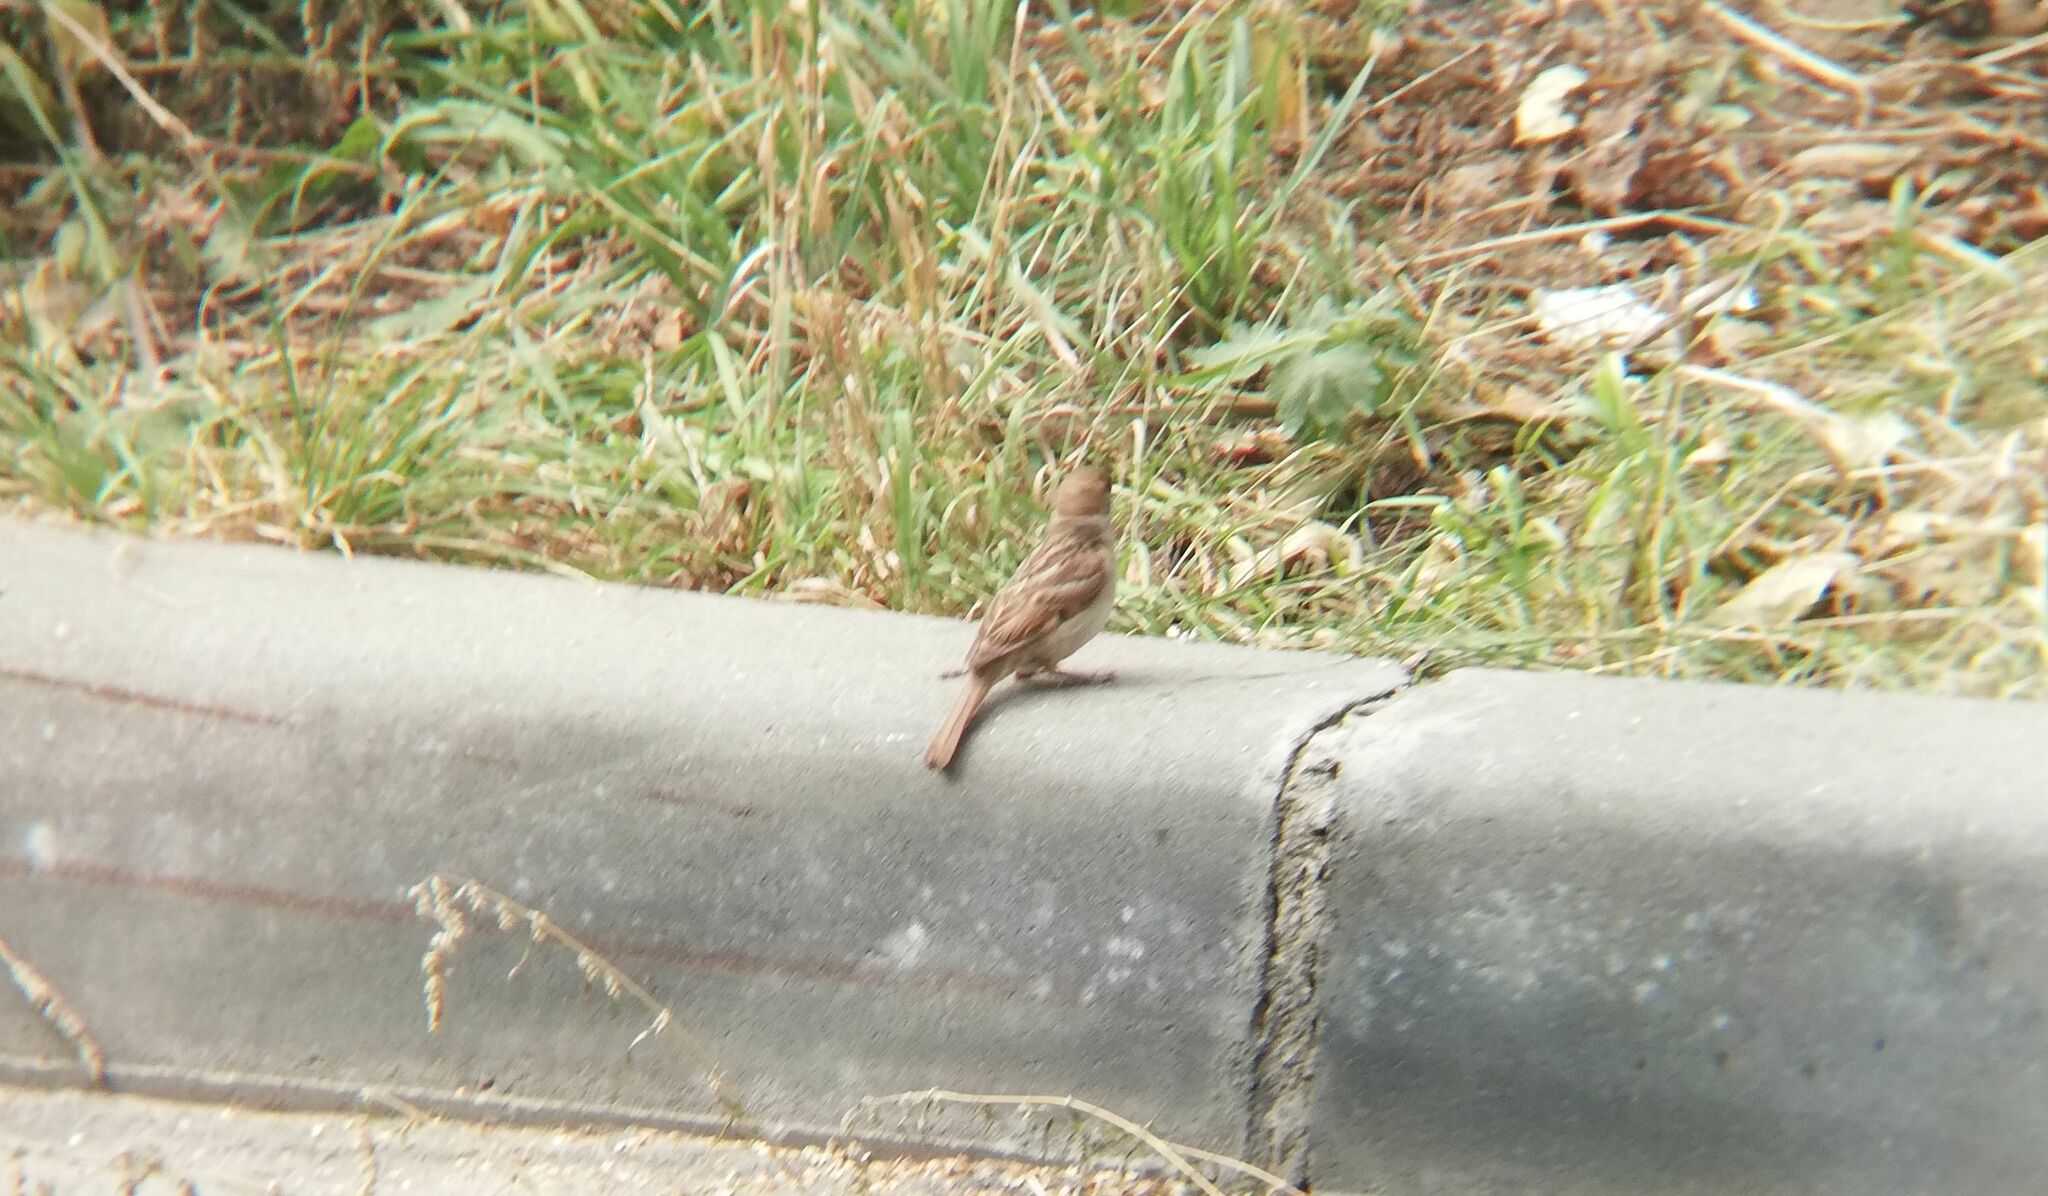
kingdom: Animalia
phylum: Chordata
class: Aves
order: Passeriformes
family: Passeridae
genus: Passer
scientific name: Passer montanus
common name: Eurasian tree sparrow
